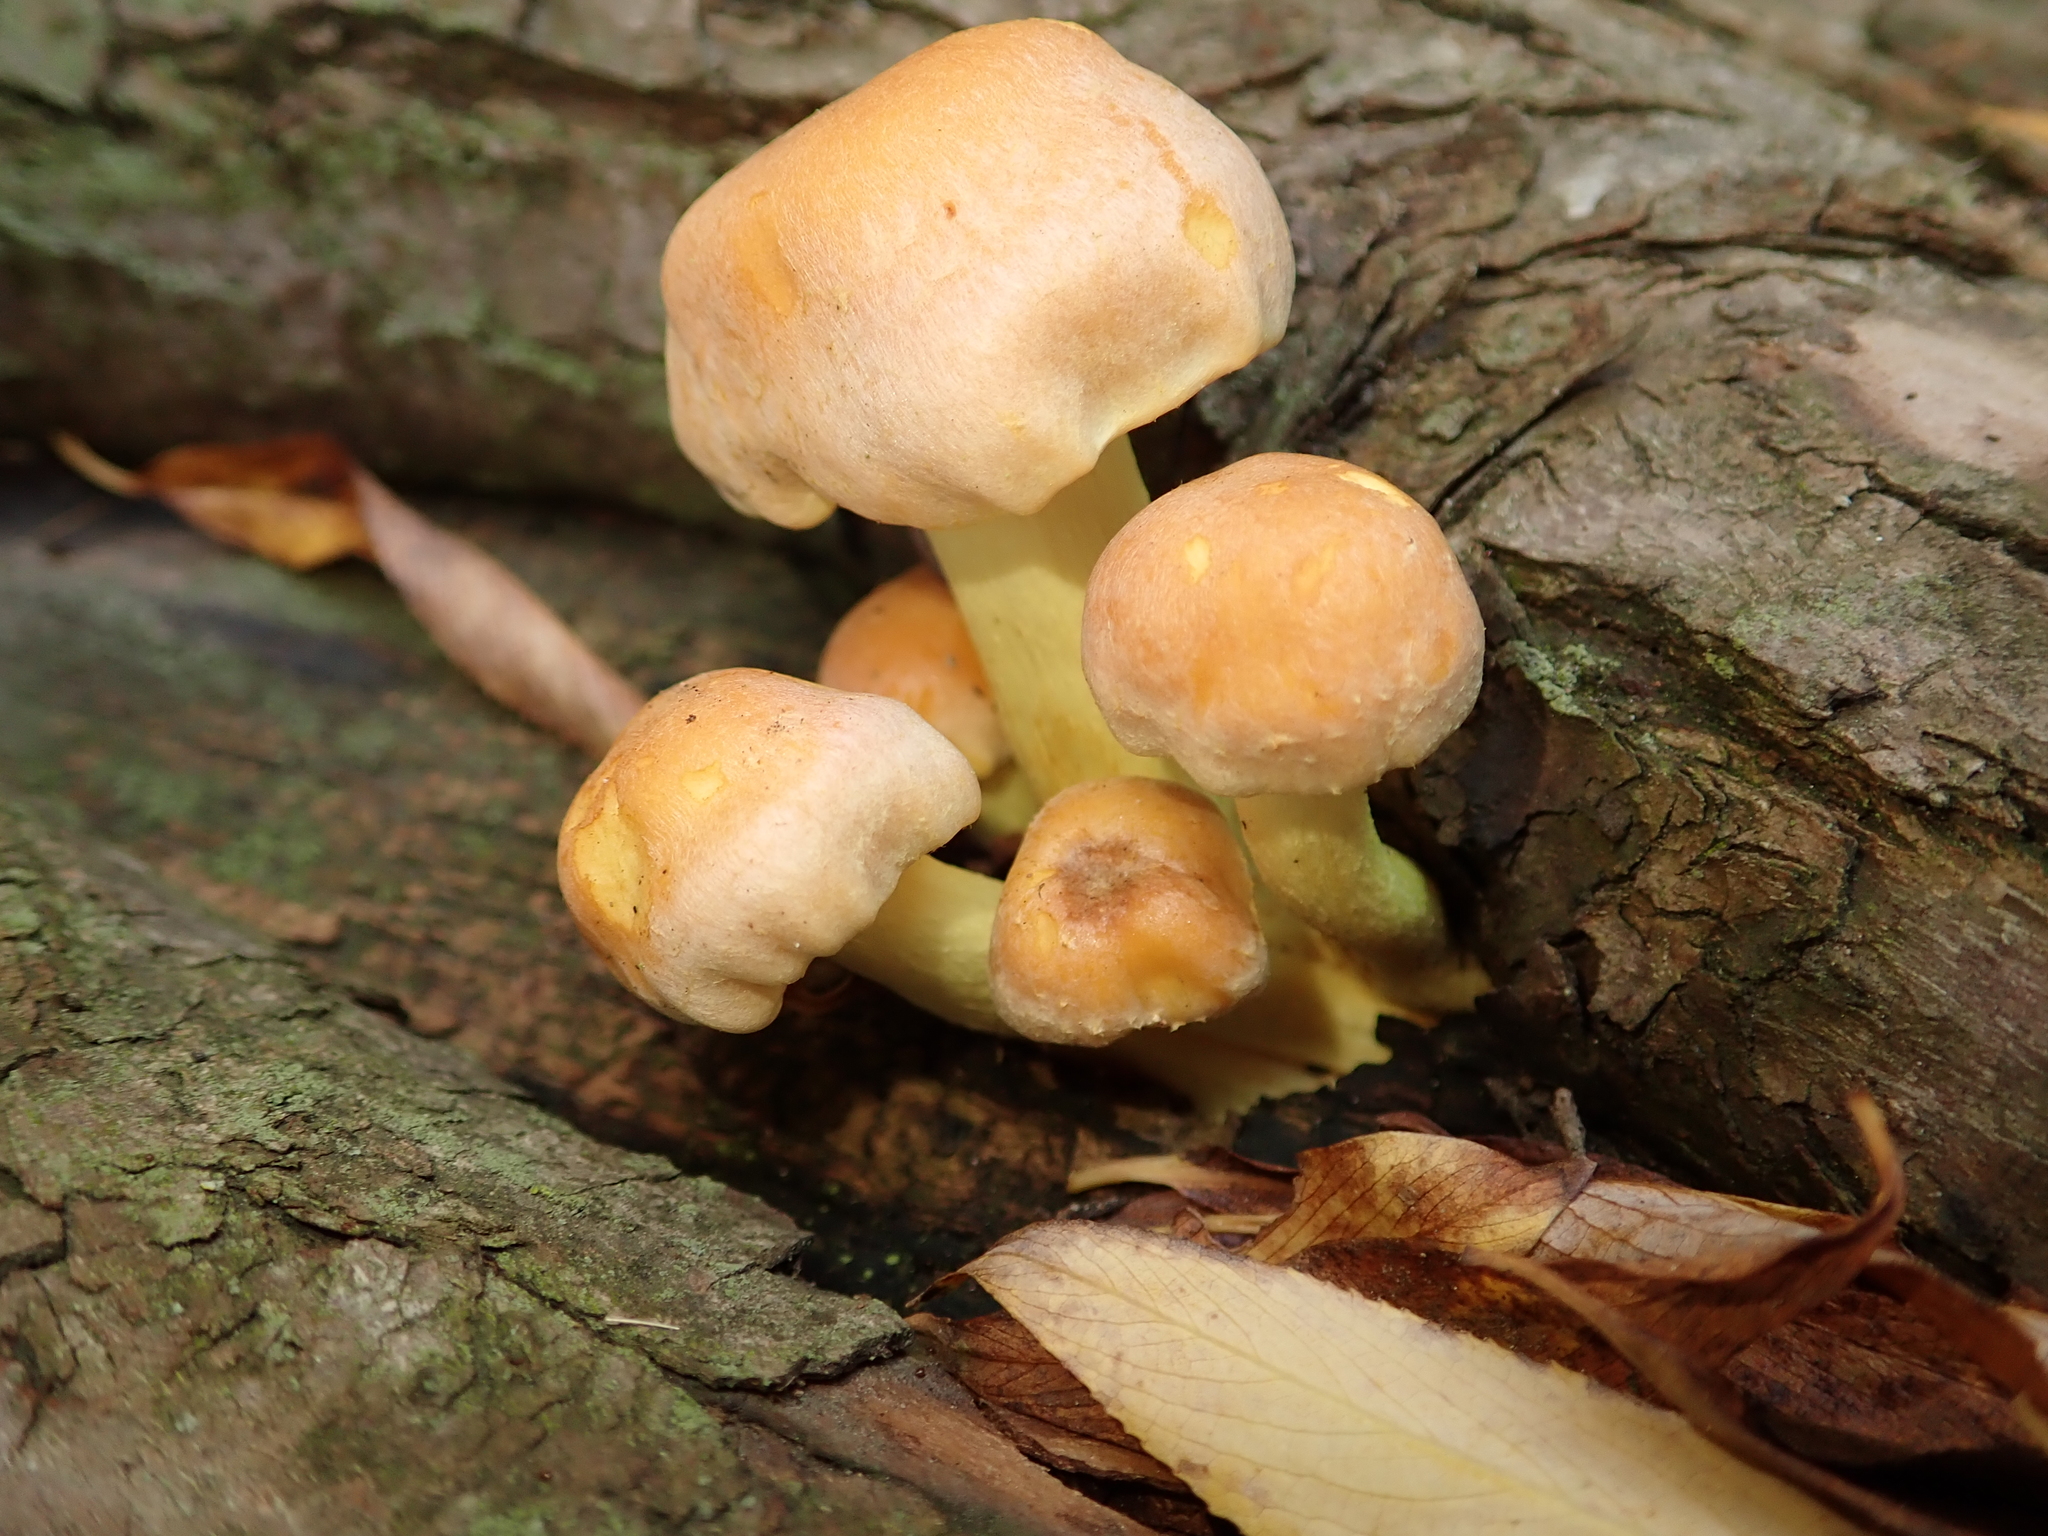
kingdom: Fungi
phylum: Basidiomycota
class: Agaricomycetes
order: Agaricales
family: Strophariaceae
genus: Hypholoma
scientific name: Hypholoma fasciculare
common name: Sulphur tuft
